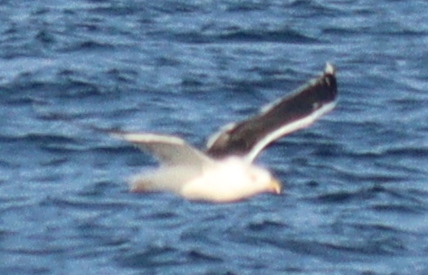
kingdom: Animalia
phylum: Chordata
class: Aves
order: Charadriiformes
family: Laridae
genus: Larus
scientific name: Larus marinus
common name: Great black-backed gull
